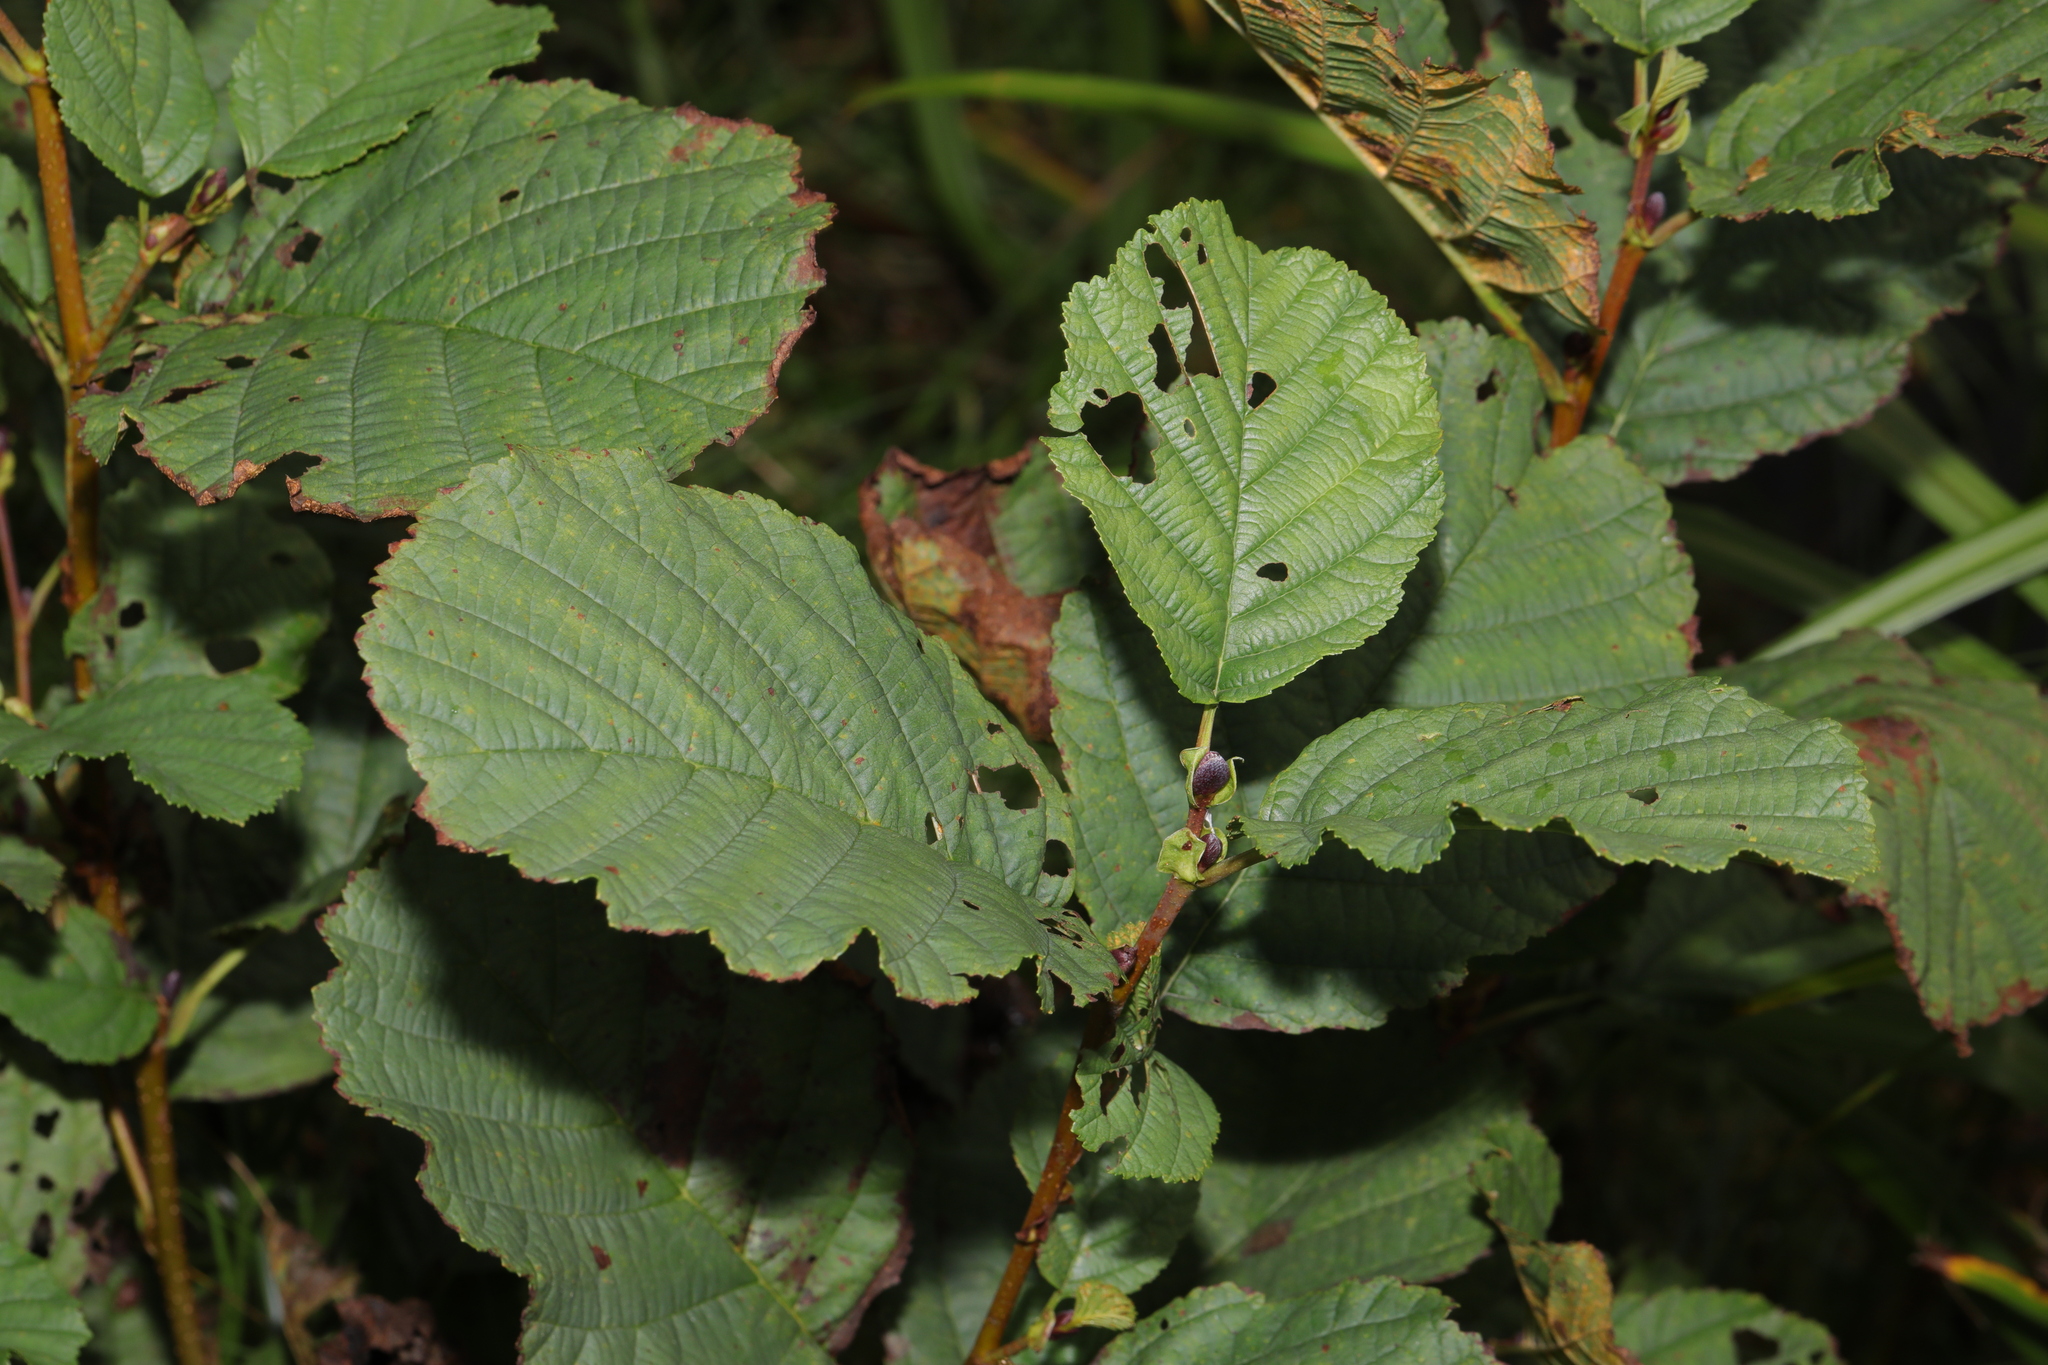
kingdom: Plantae
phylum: Tracheophyta
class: Magnoliopsida
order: Fagales
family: Betulaceae
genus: Alnus
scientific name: Alnus glutinosa
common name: Black alder
